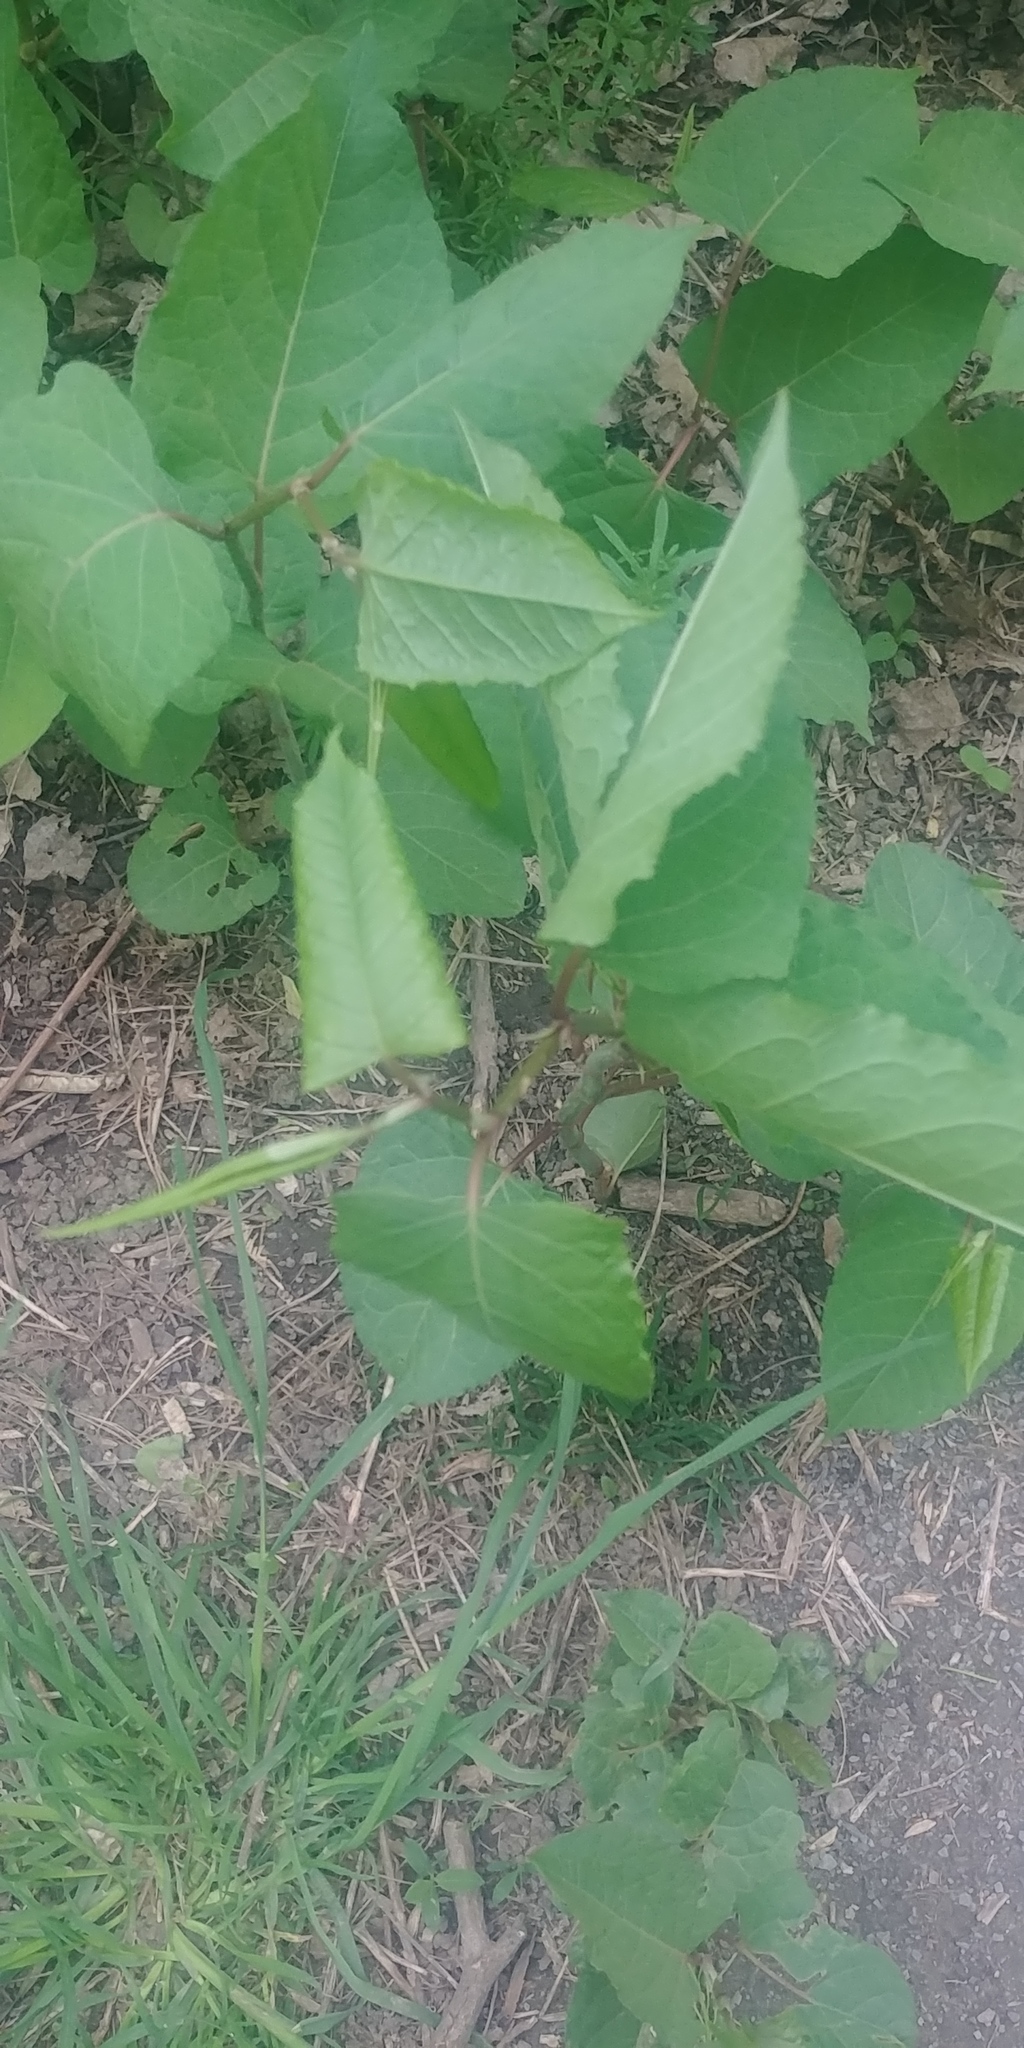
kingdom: Plantae
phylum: Tracheophyta
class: Magnoliopsida
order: Caryophyllales
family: Polygonaceae
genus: Reynoutria
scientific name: Reynoutria japonica
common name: Japanese knotweed
